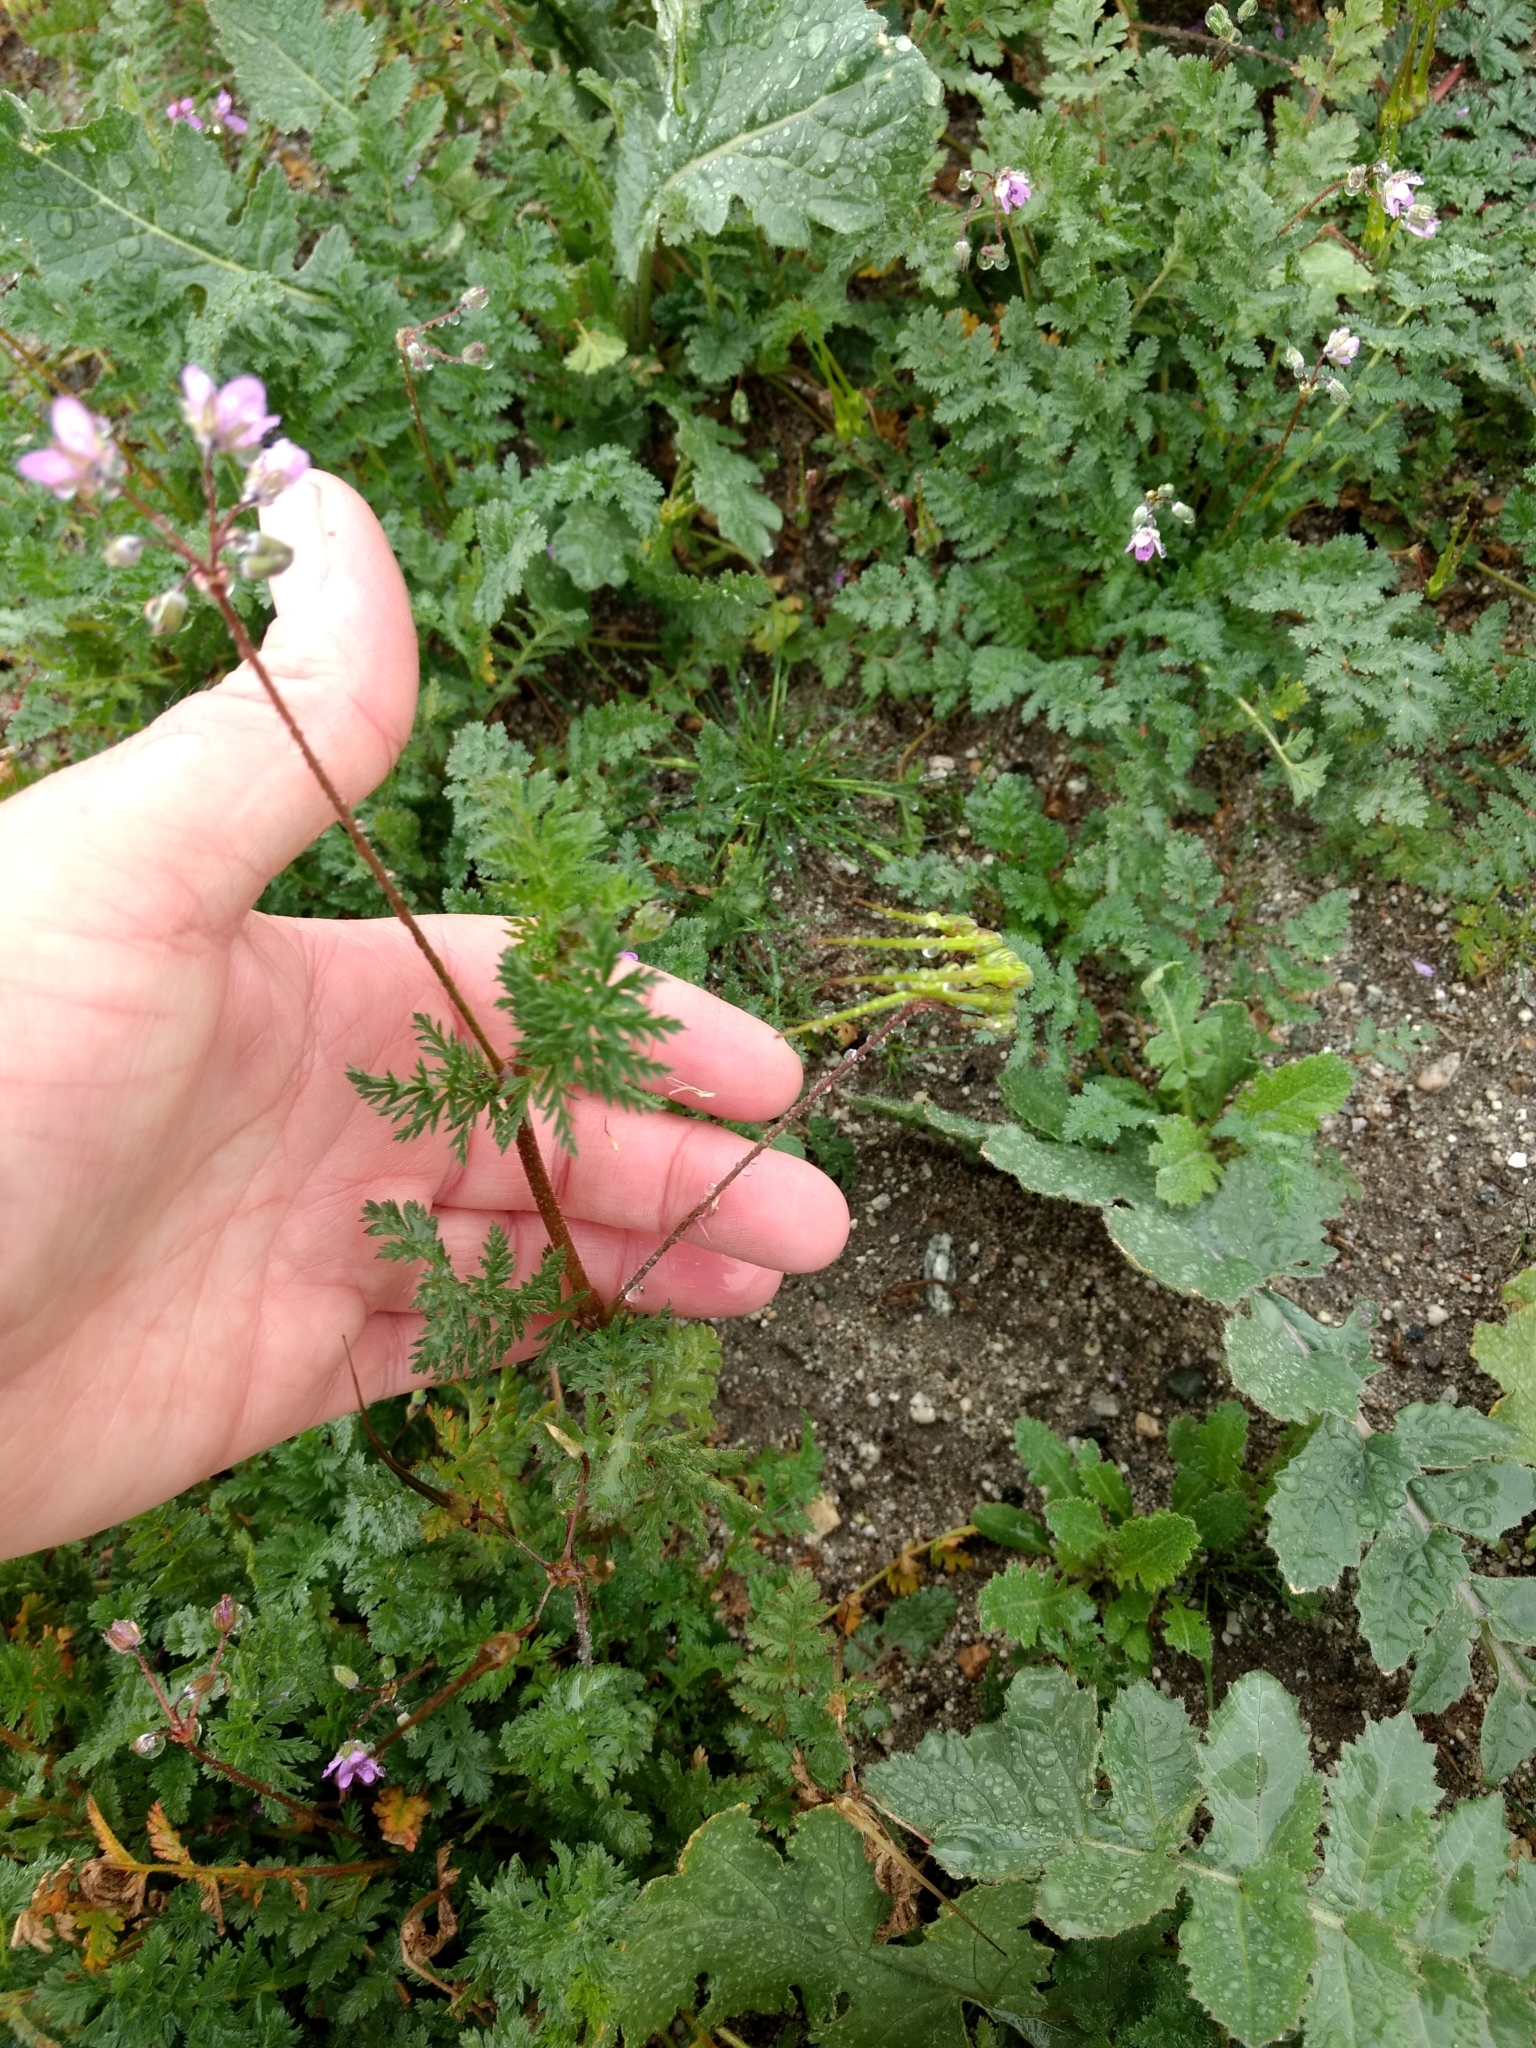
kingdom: Plantae
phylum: Tracheophyta
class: Magnoliopsida
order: Geraniales
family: Geraniaceae
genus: Erodium
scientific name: Erodium cicutarium
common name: Common stork's-bill
